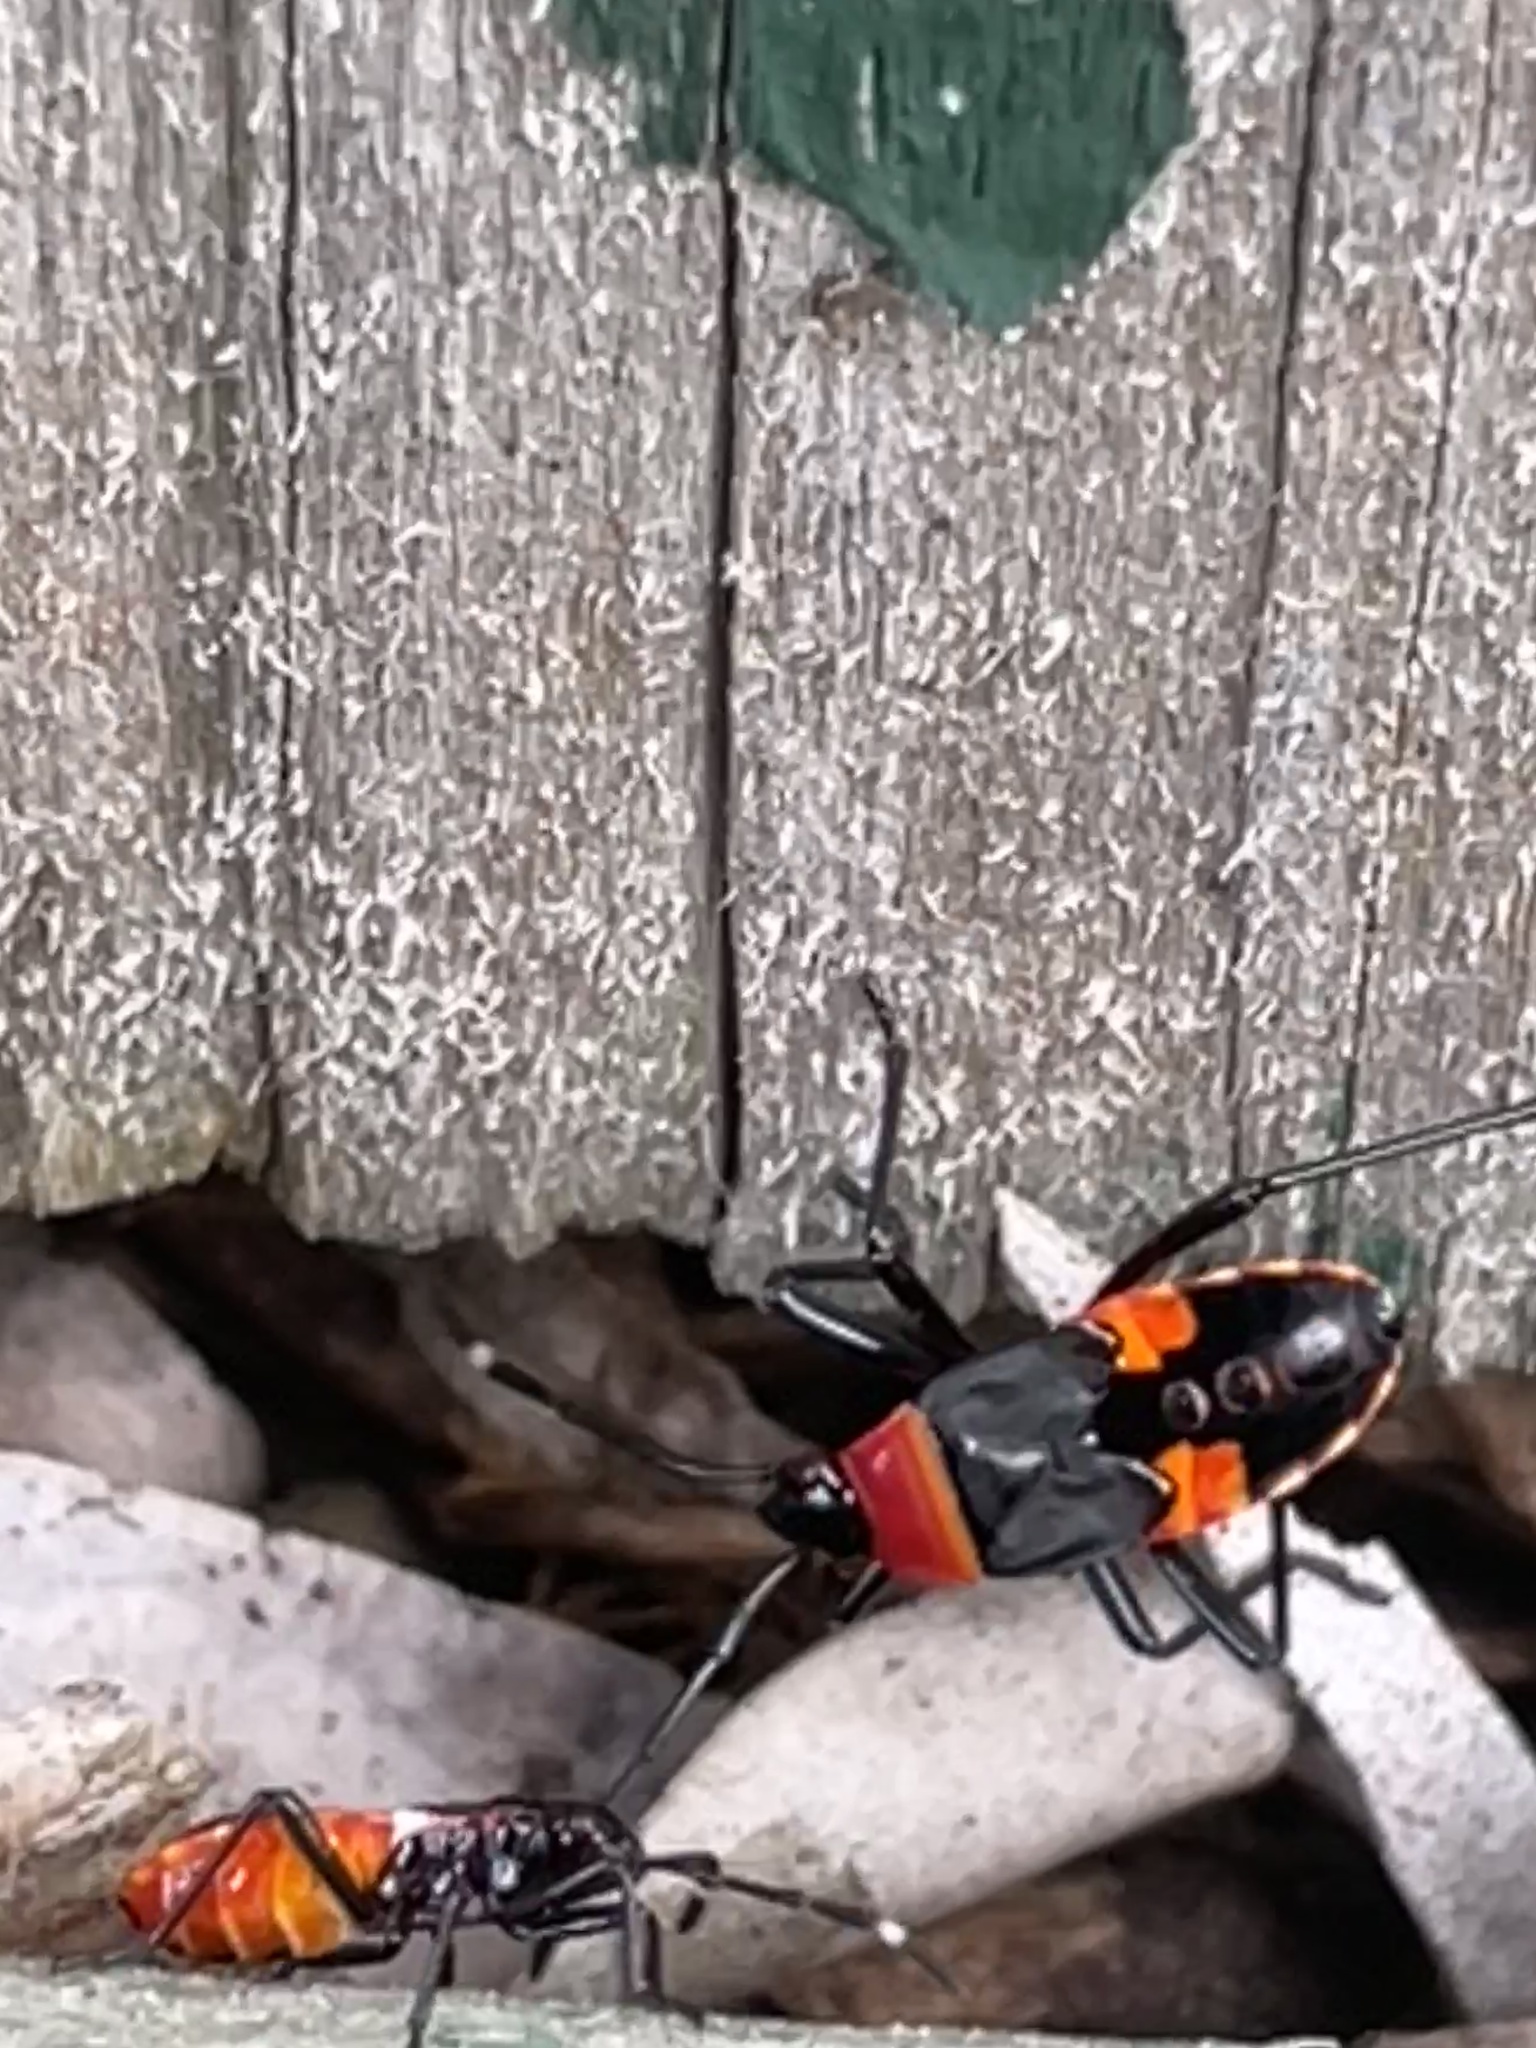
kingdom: Animalia
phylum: Arthropoda
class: Insecta
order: Hemiptera
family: Pyrrhocoridae
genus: Dindymus
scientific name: Dindymus
